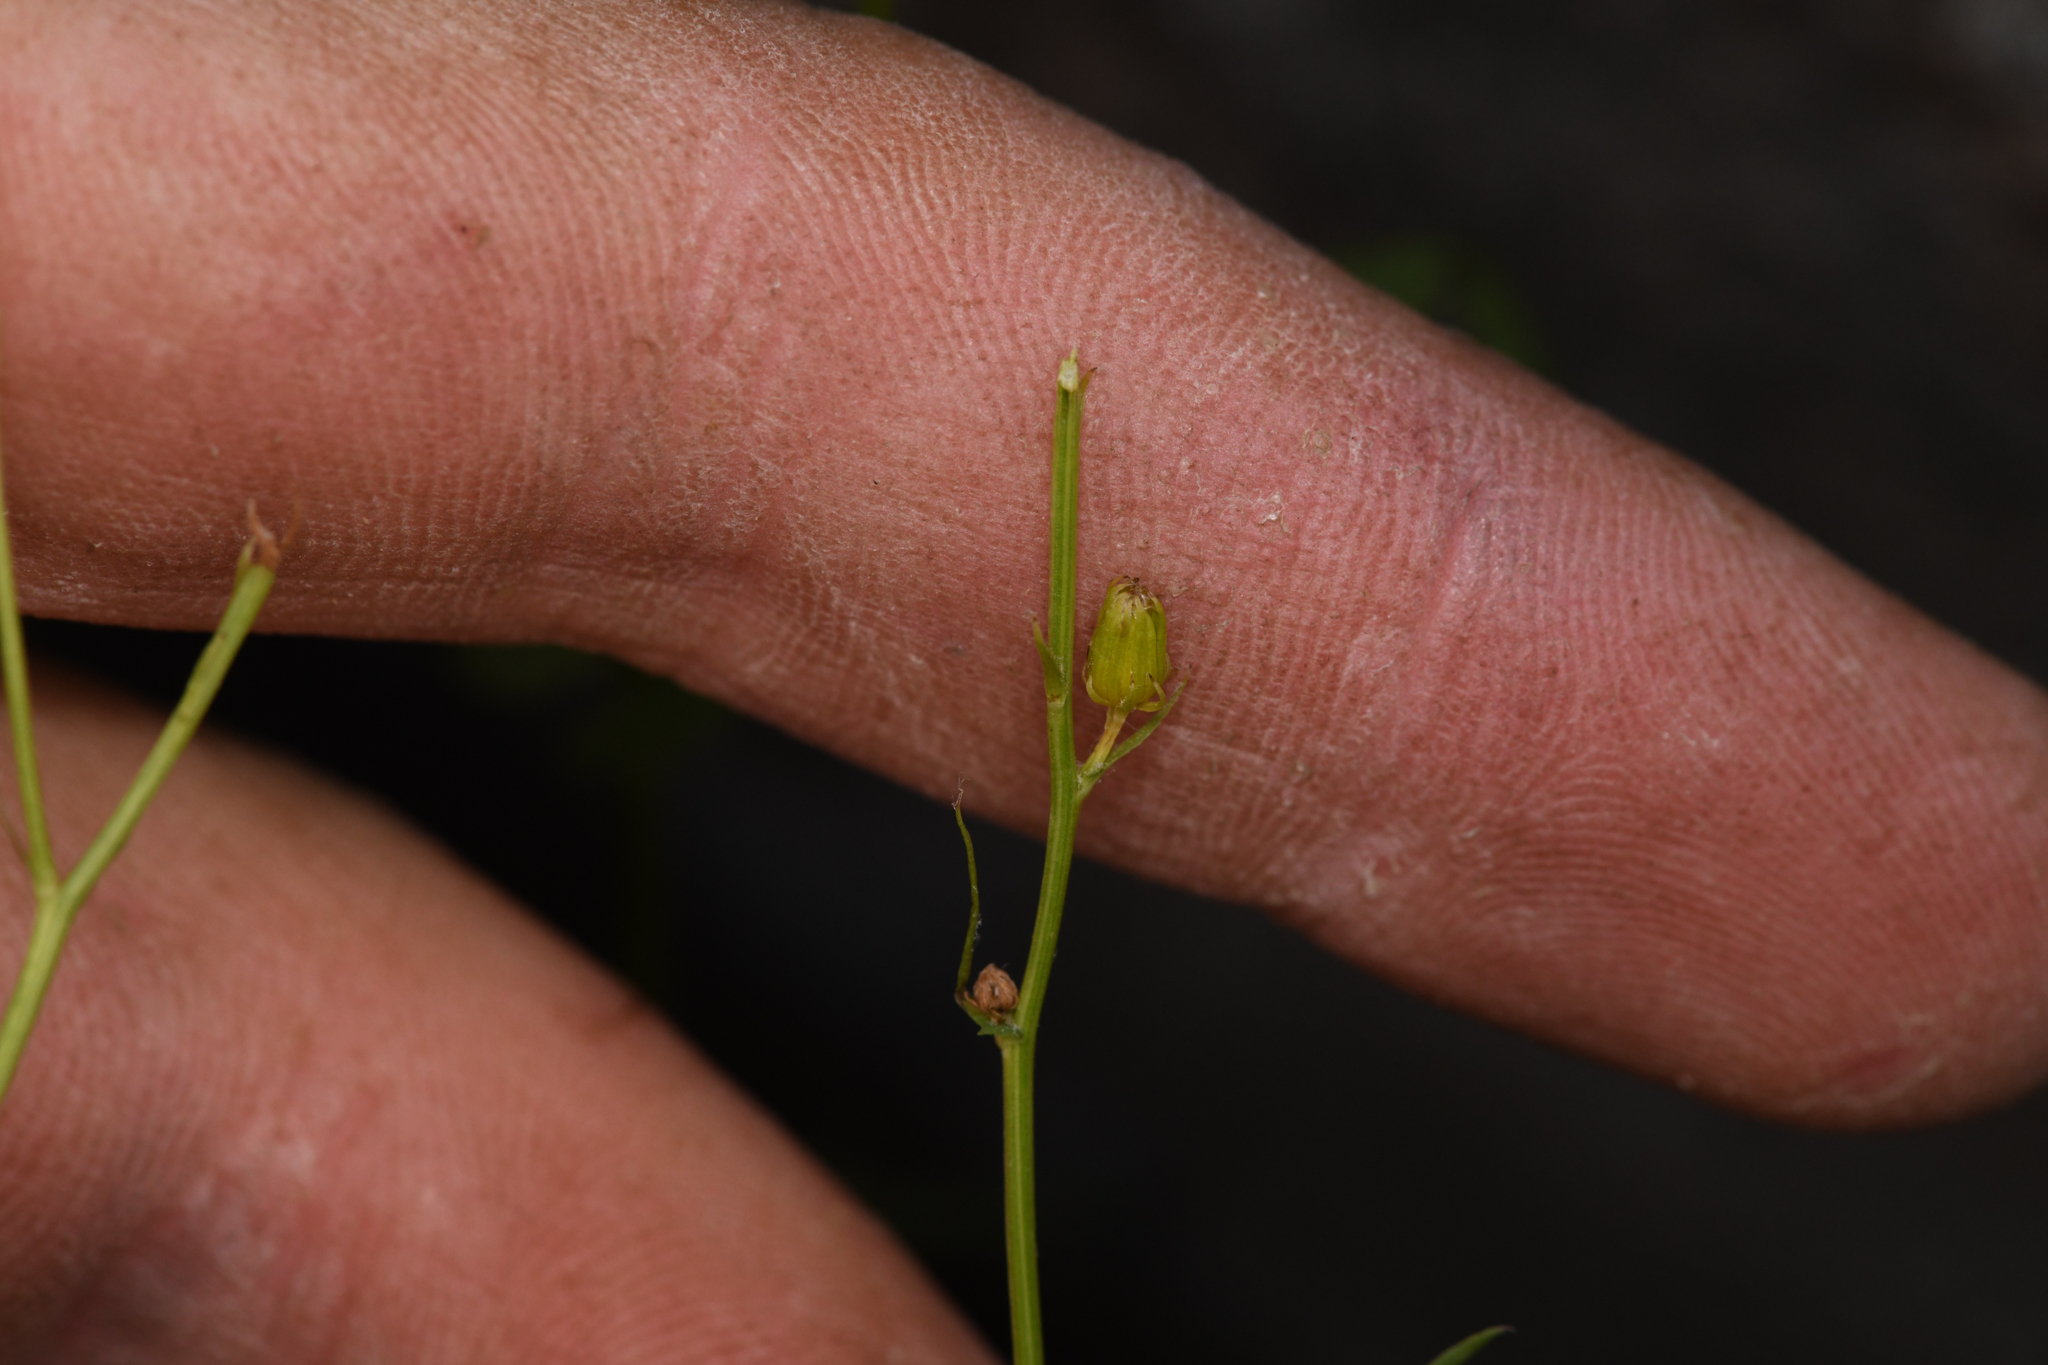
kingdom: Plantae
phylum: Tracheophyta
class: Magnoliopsida
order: Asterales
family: Asteraceae
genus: Senecio
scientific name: Senecio lemmonii
